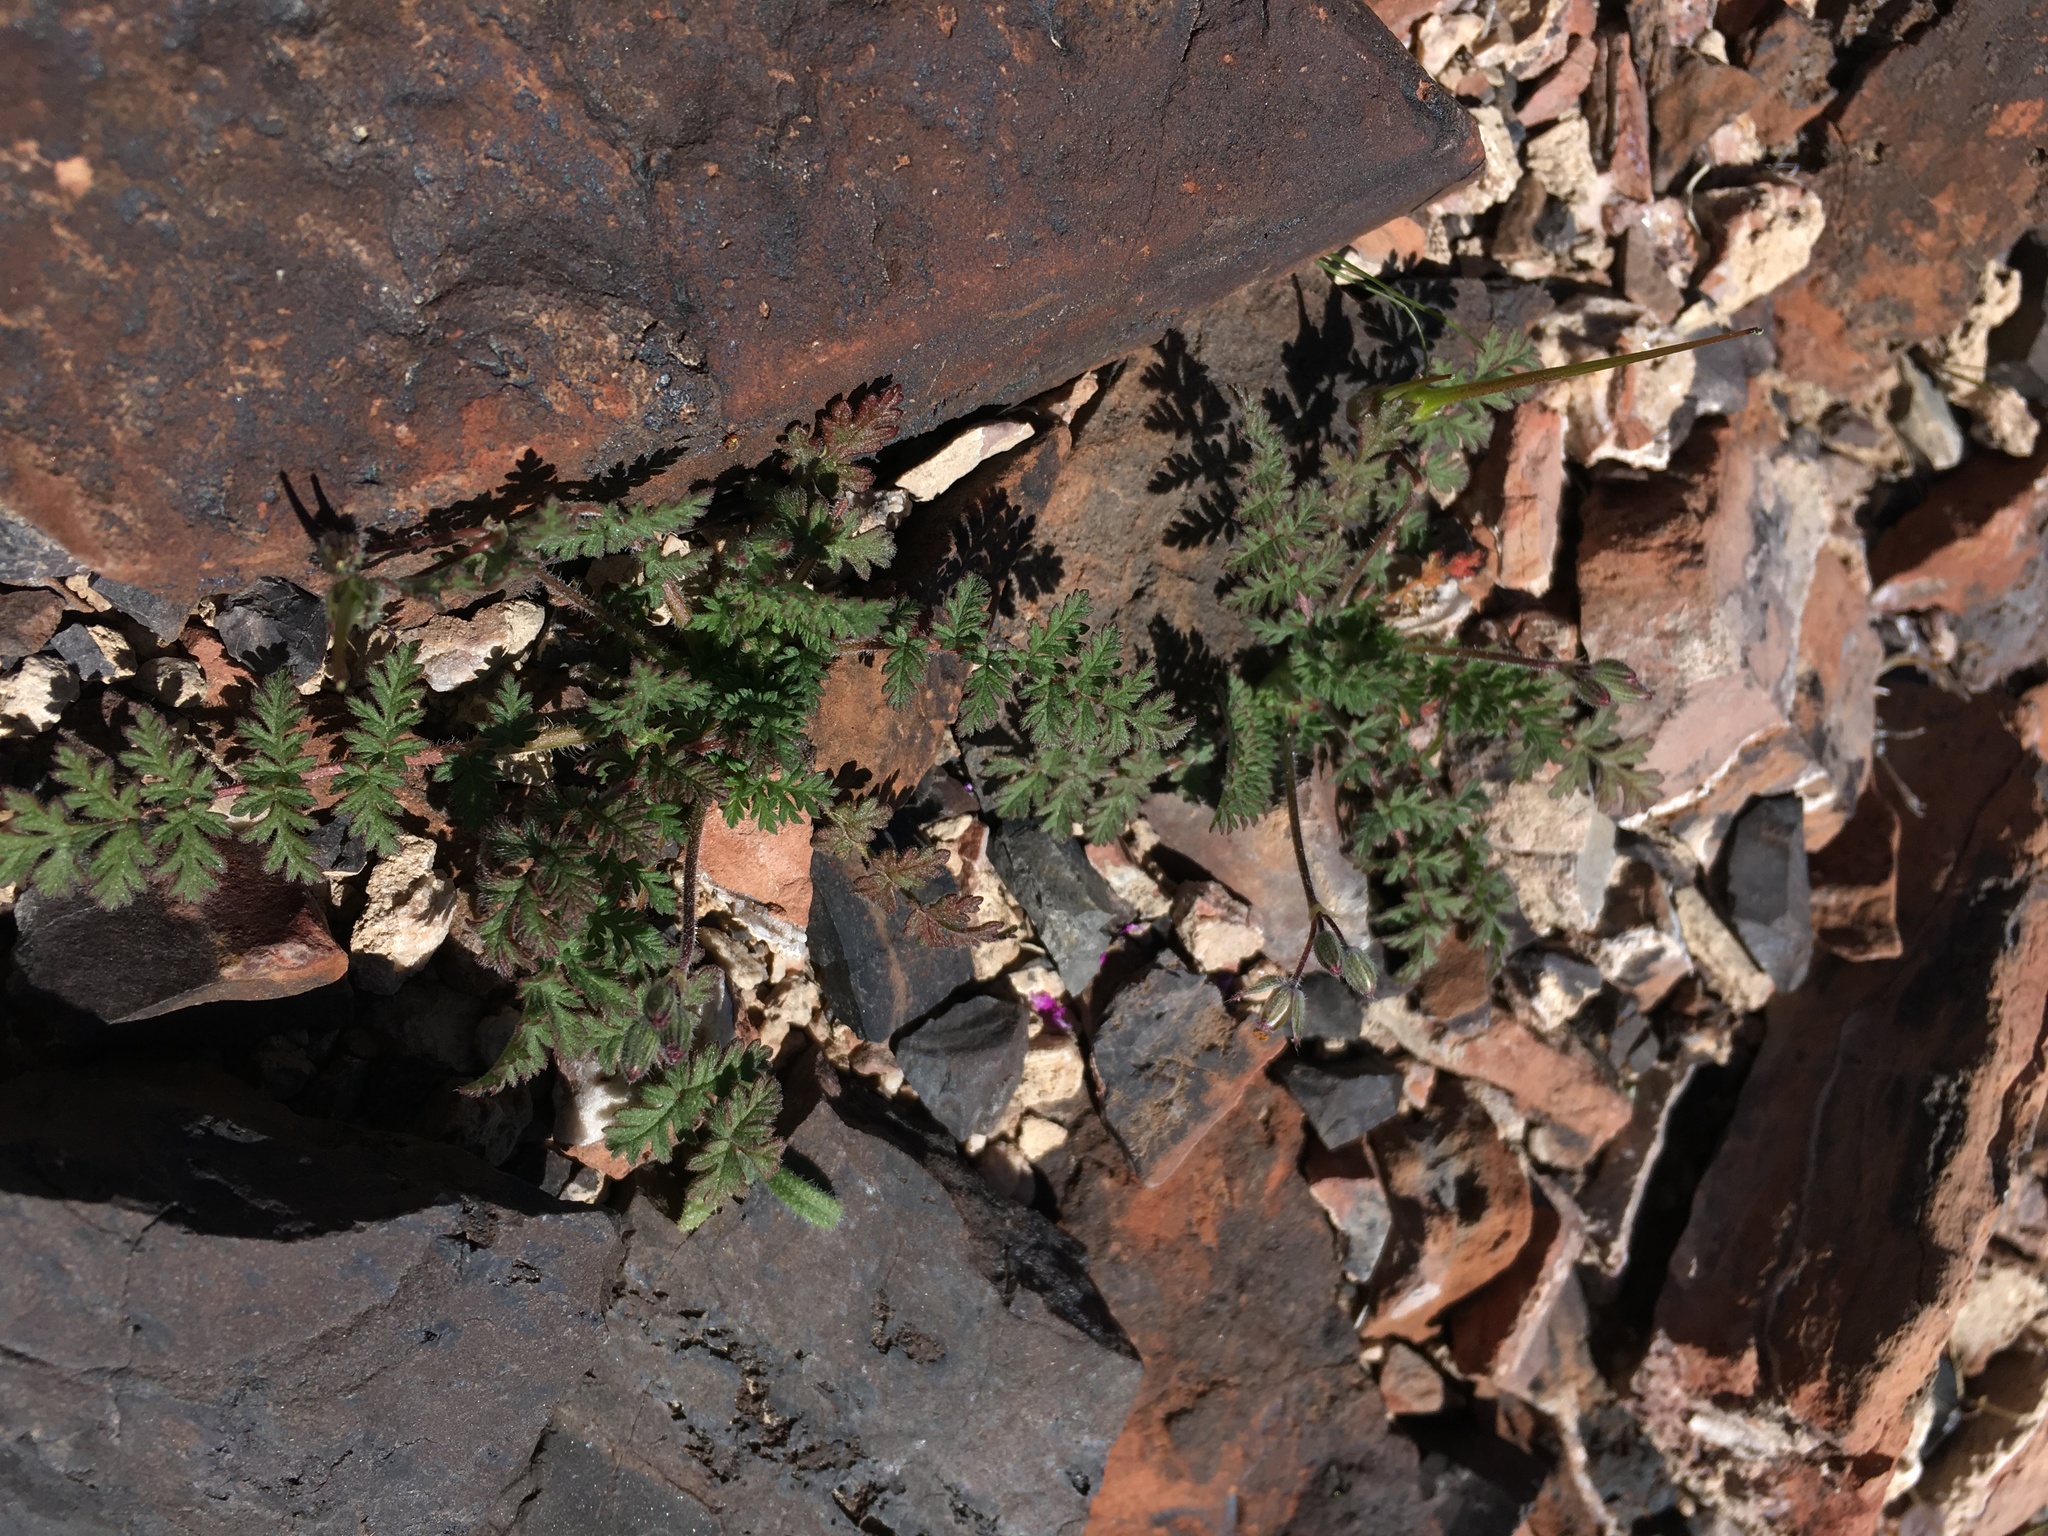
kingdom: Plantae
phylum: Tracheophyta
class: Magnoliopsida
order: Geraniales
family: Geraniaceae
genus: Erodium
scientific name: Erodium cicutarium
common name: Common stork's-bill
